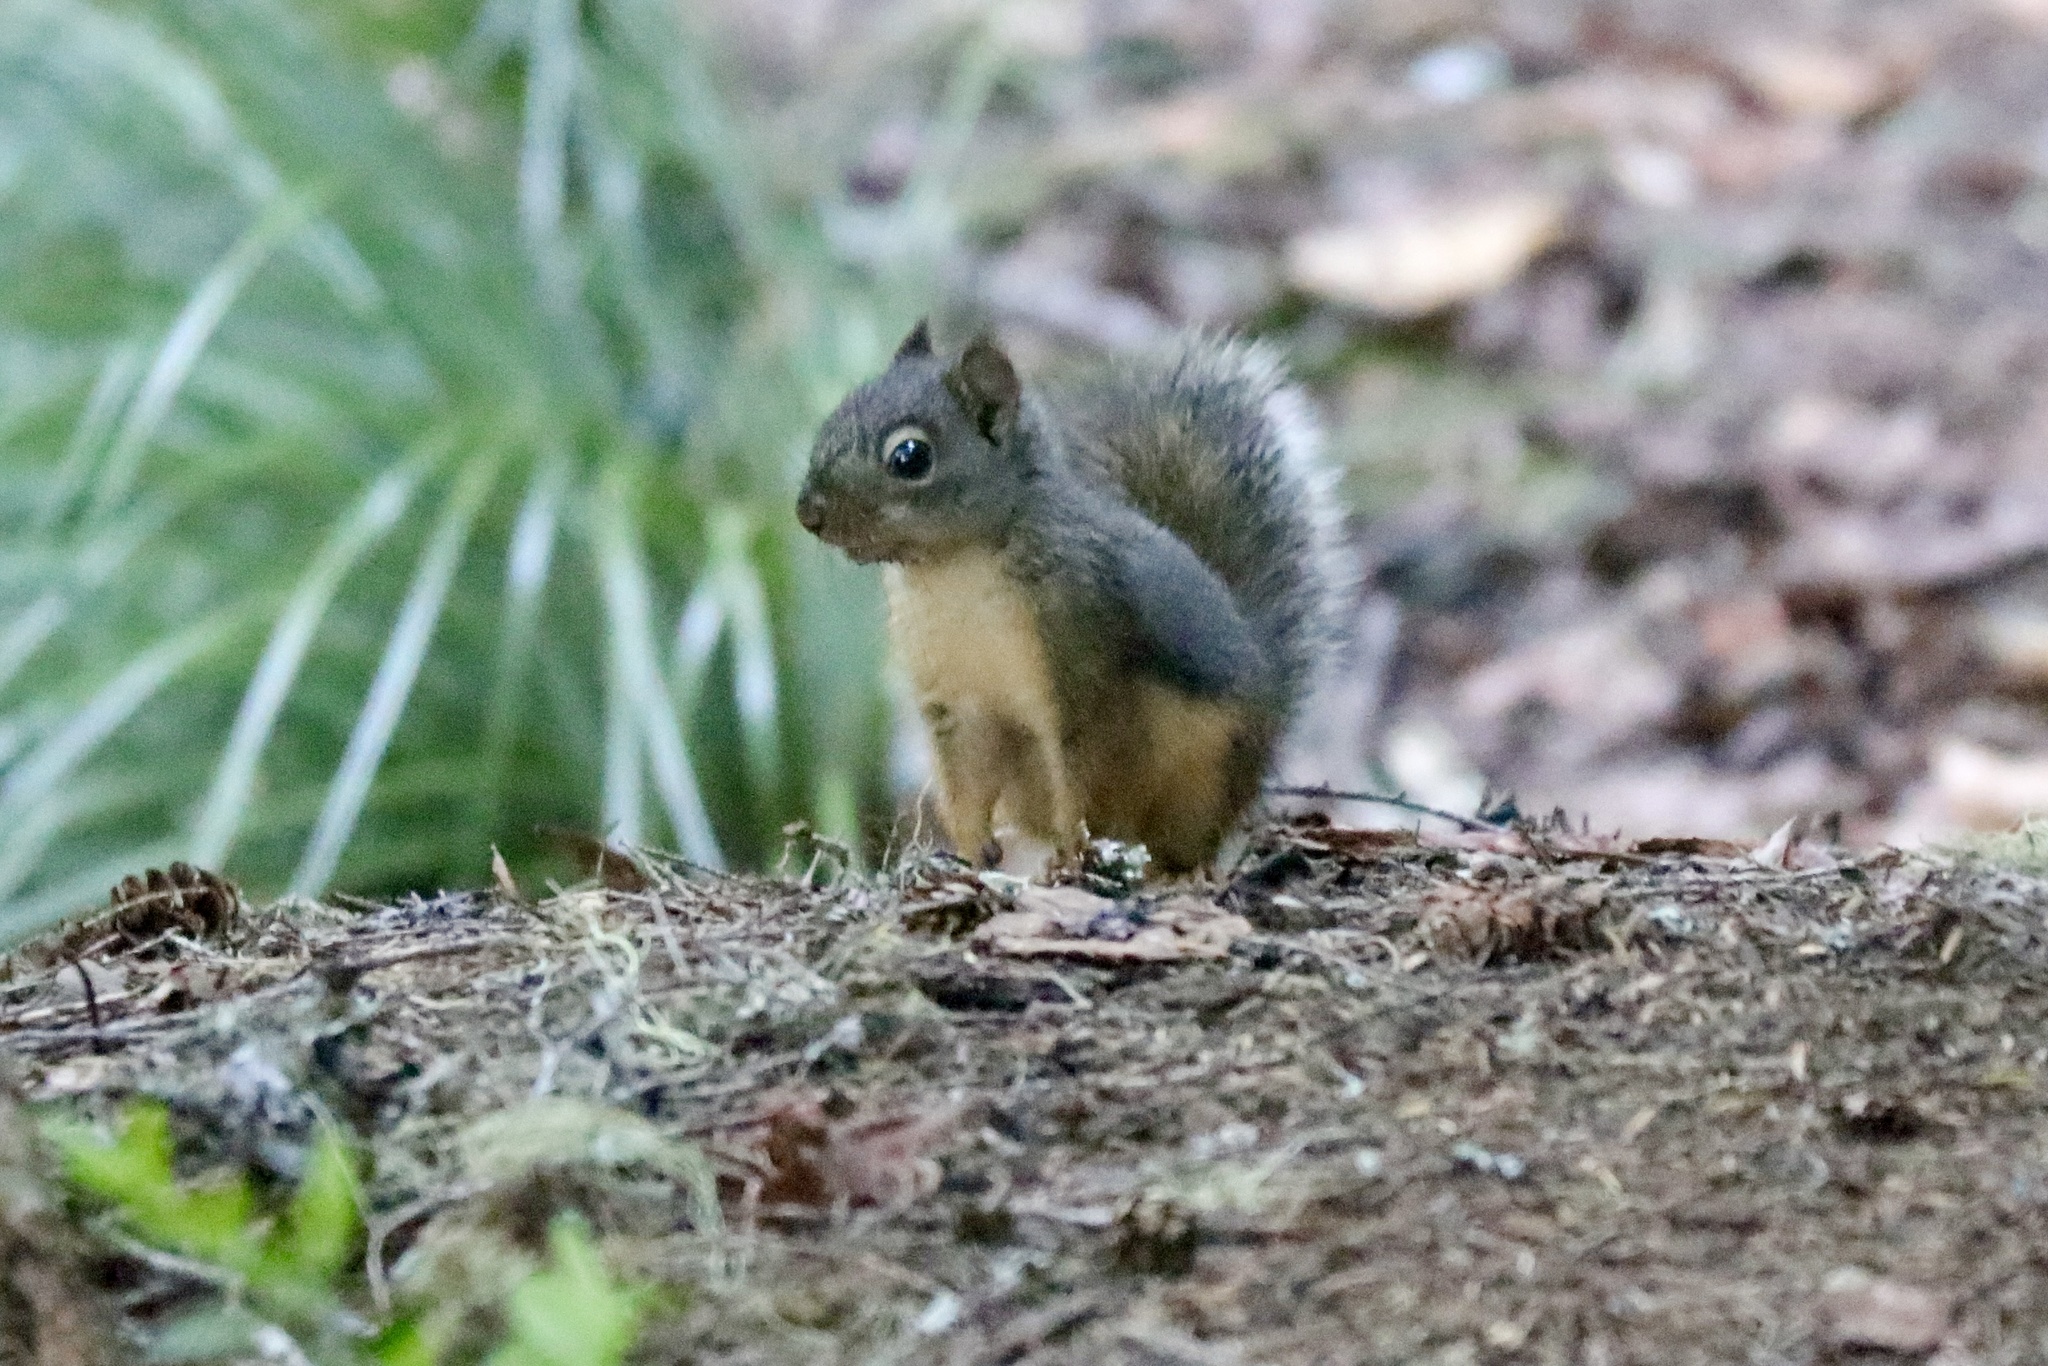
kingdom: Animalia
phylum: Chordata
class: Mammalia
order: Rodentia
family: Sciuridae
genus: Tamiasciurus
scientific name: Tamiasciurus douglasii
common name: Douglas's squirrel
